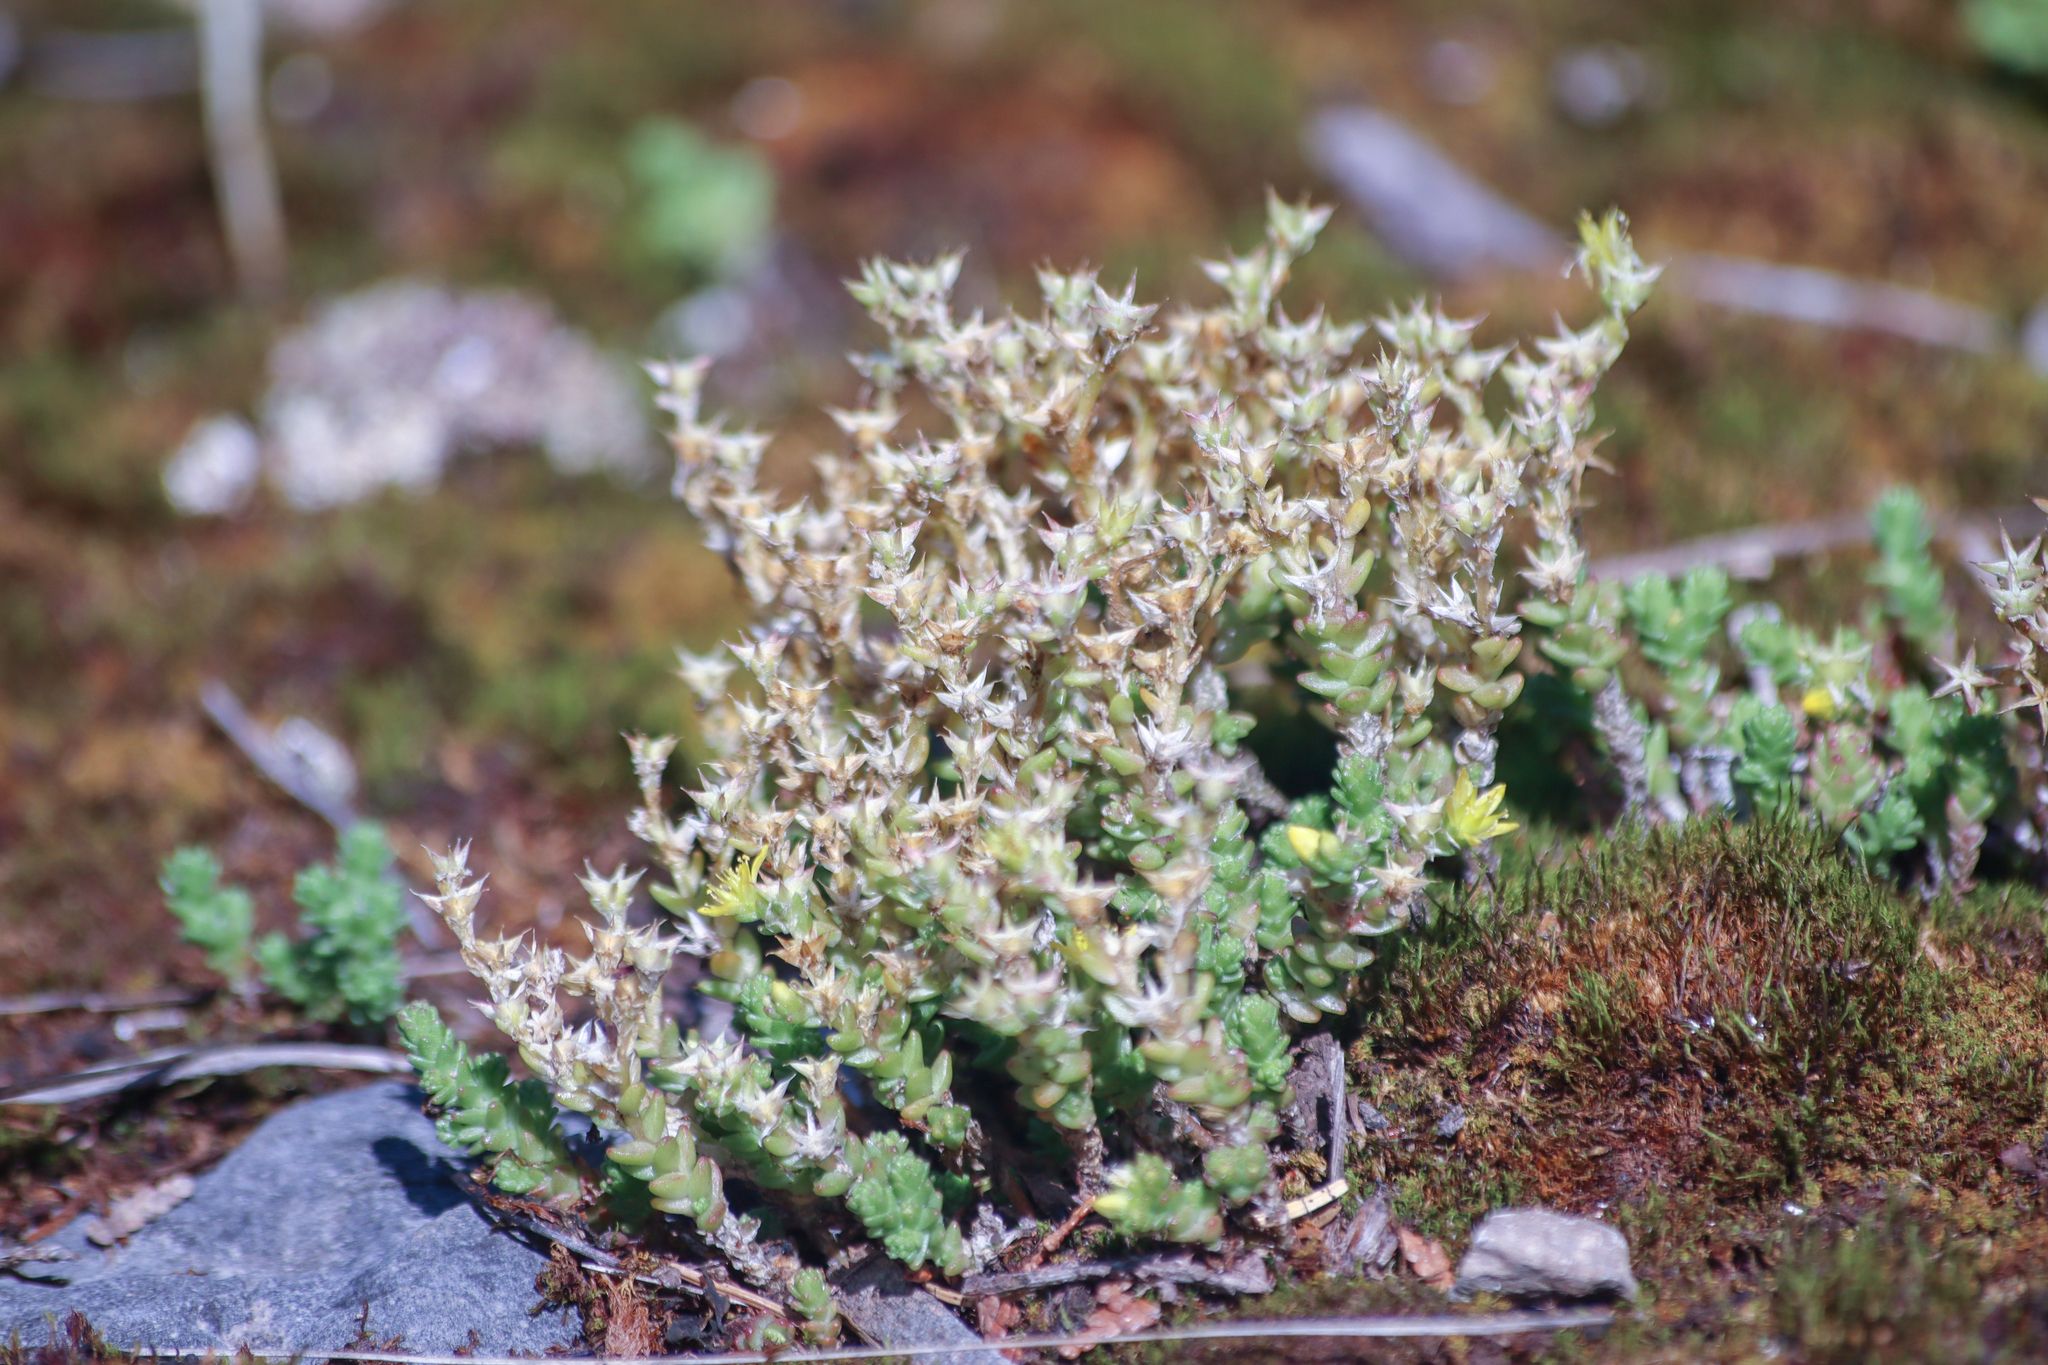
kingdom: Plantae
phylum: Tracheophyta
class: Magnoliopsida
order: Saxifragales
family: Crassulaceae
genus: Sedum
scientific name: Sedum acre
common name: Biting stonecrop
